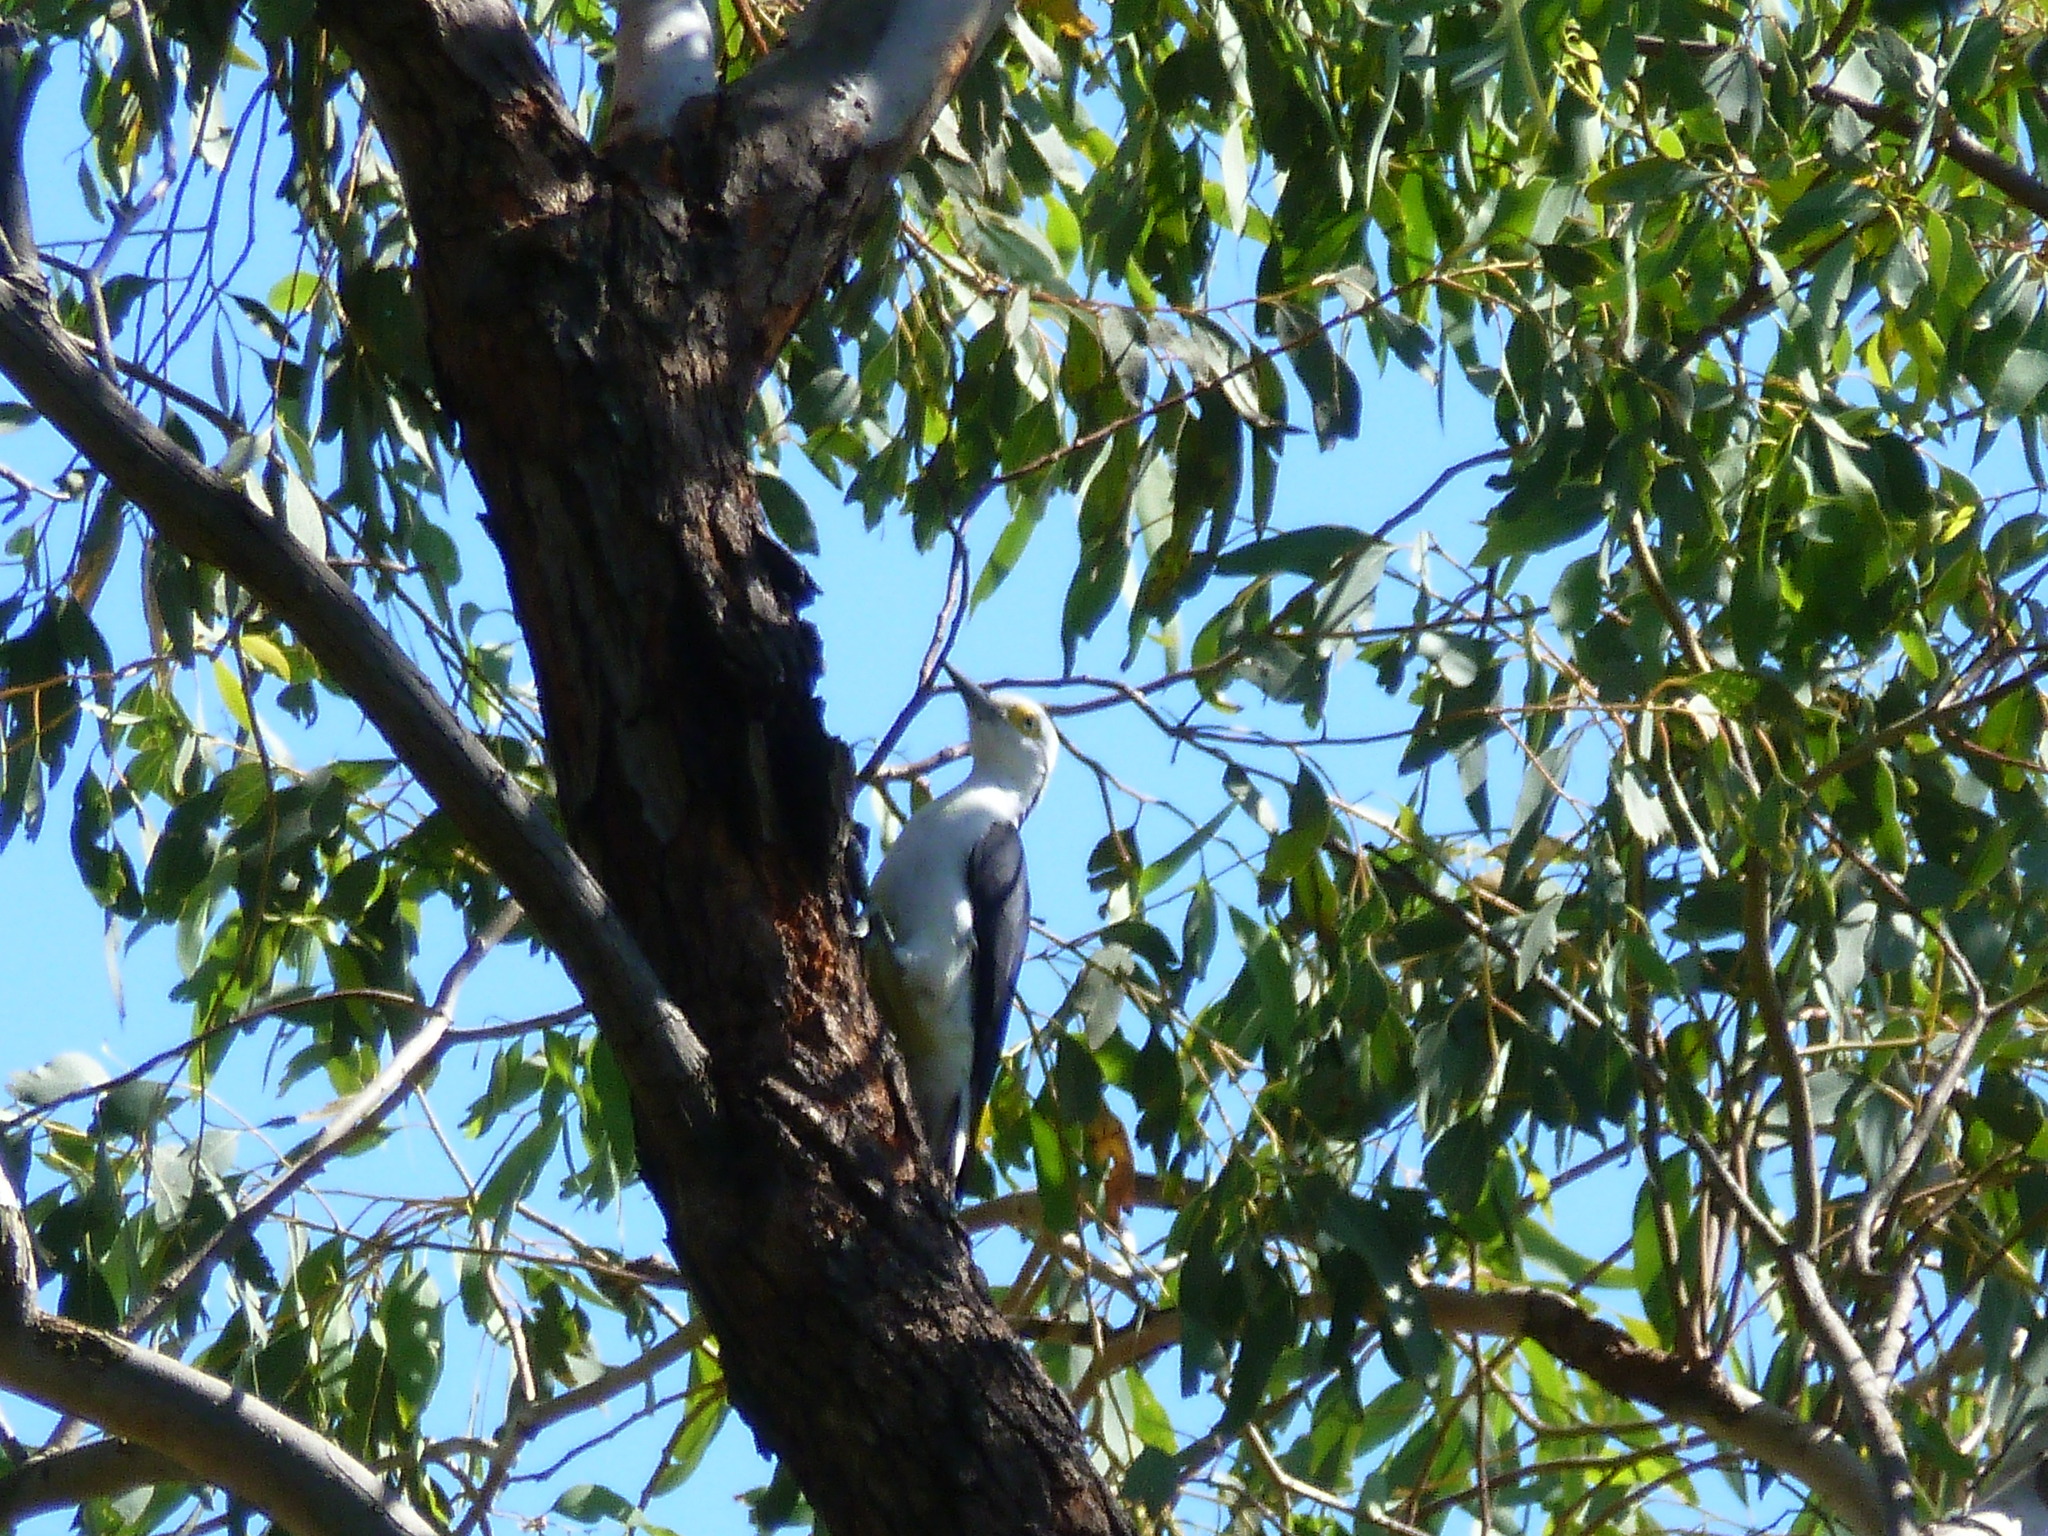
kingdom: Animalia
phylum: Chordata
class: Aves
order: Piciformes
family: Picidae
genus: Melanerpes
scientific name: Melanerpes candidus
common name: White woodpecker
